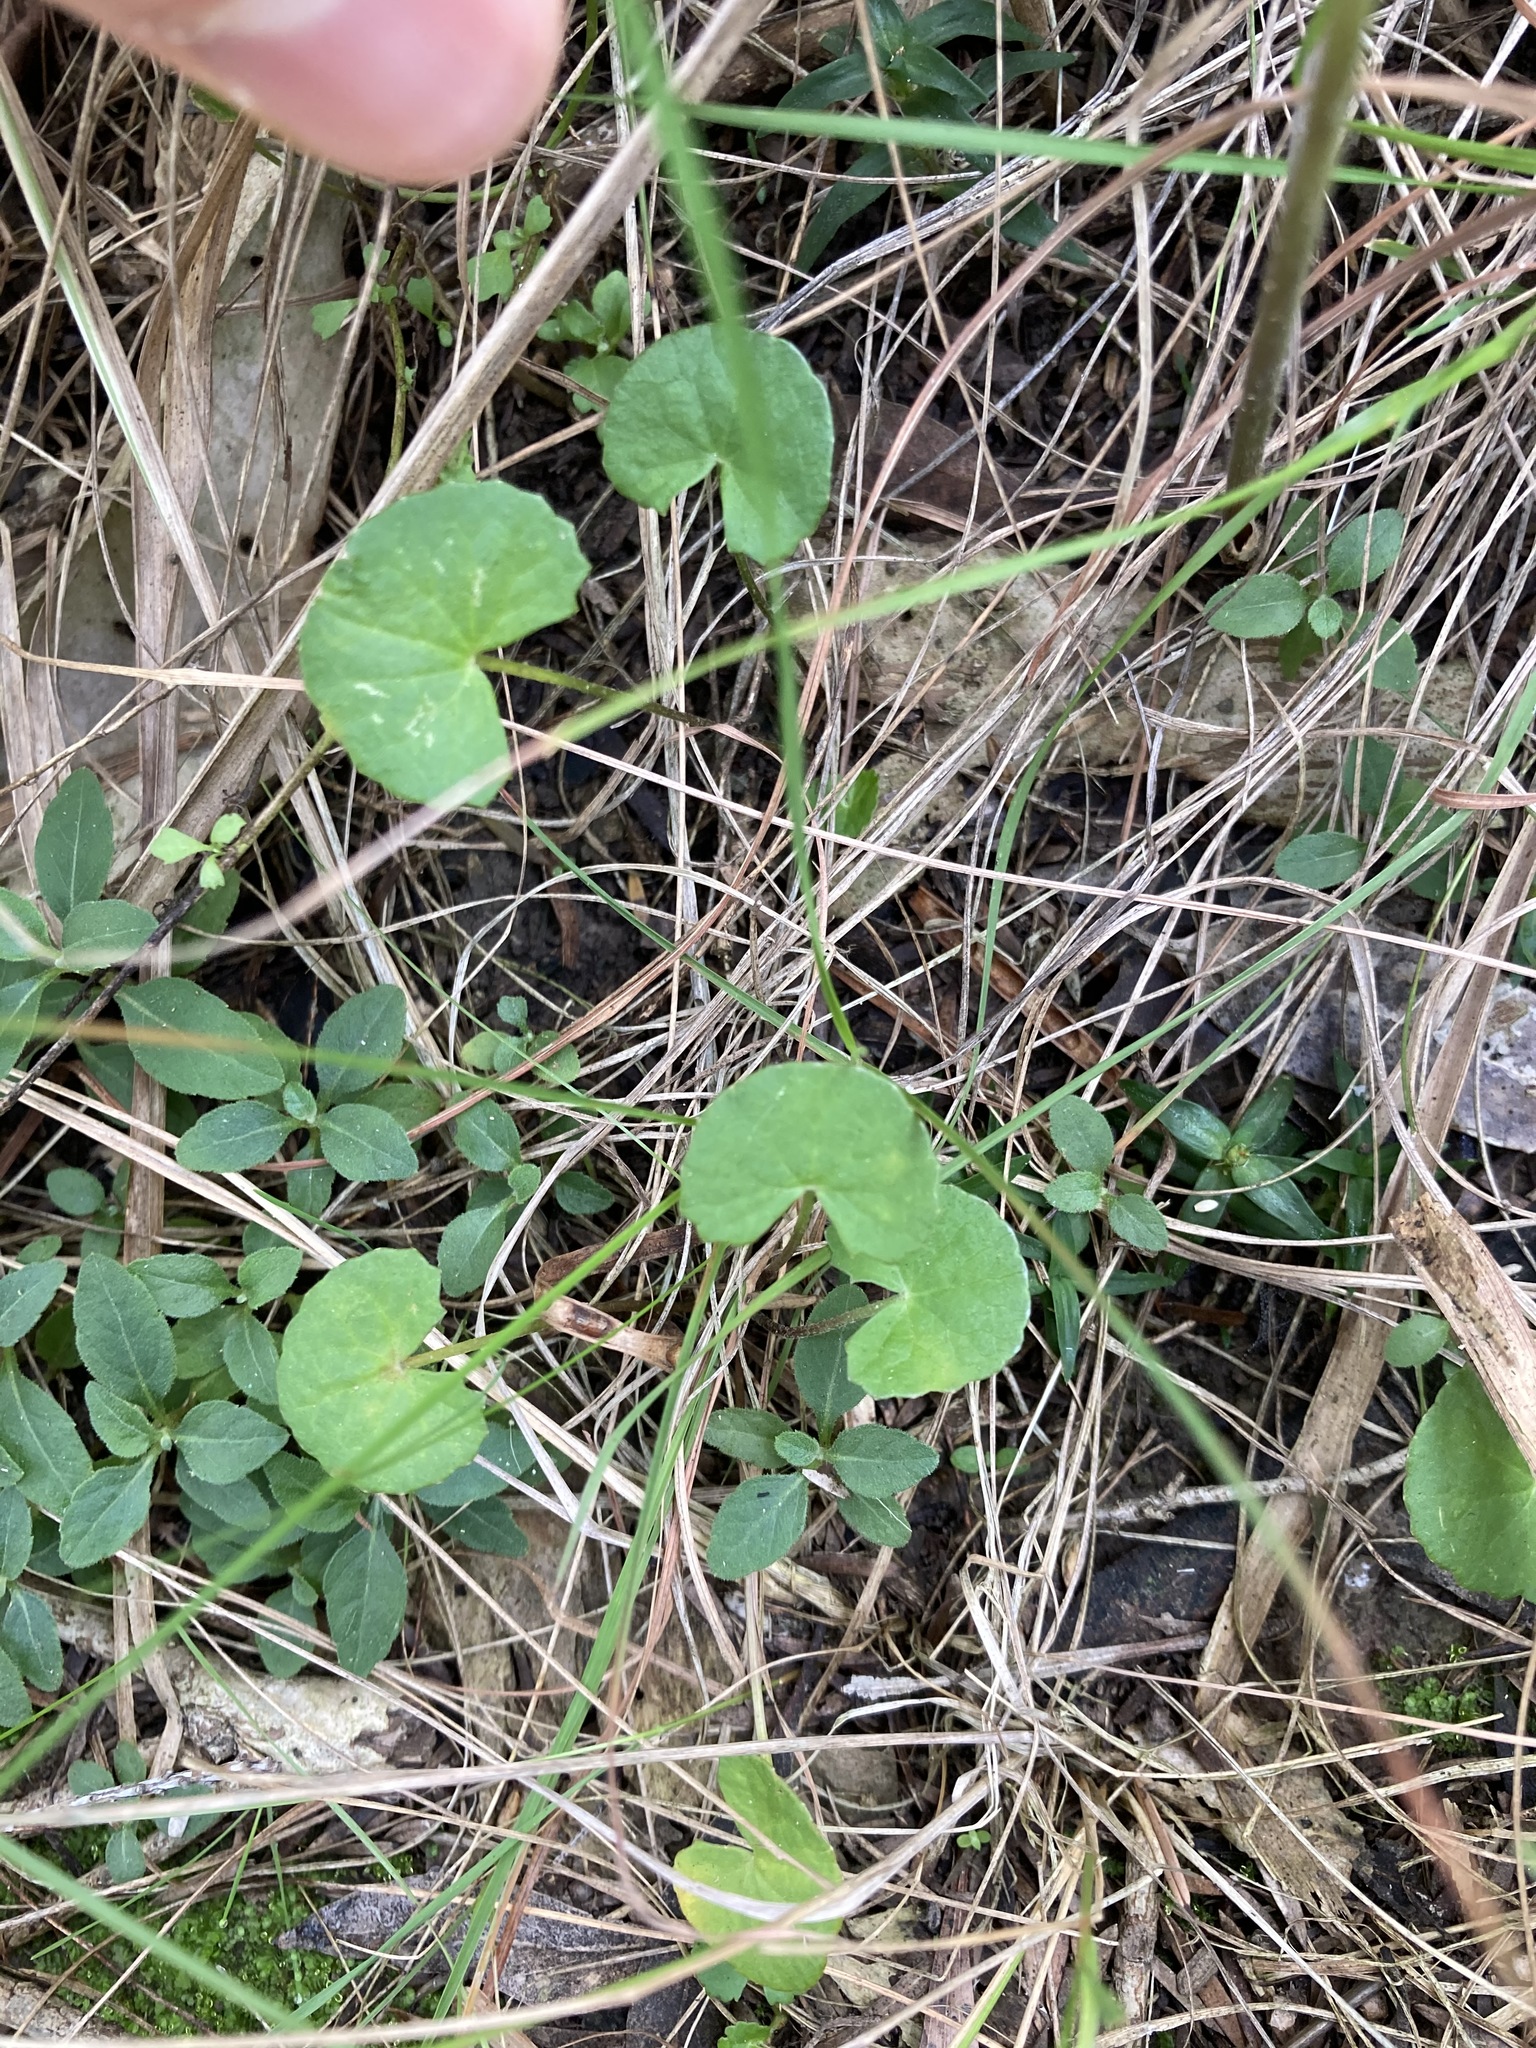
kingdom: Plantae
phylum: Tracheophyta
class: Magnoliopsida
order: Apiales
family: Apiaceae
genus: Centella
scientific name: Centella asiatica
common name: Spadeleaf
